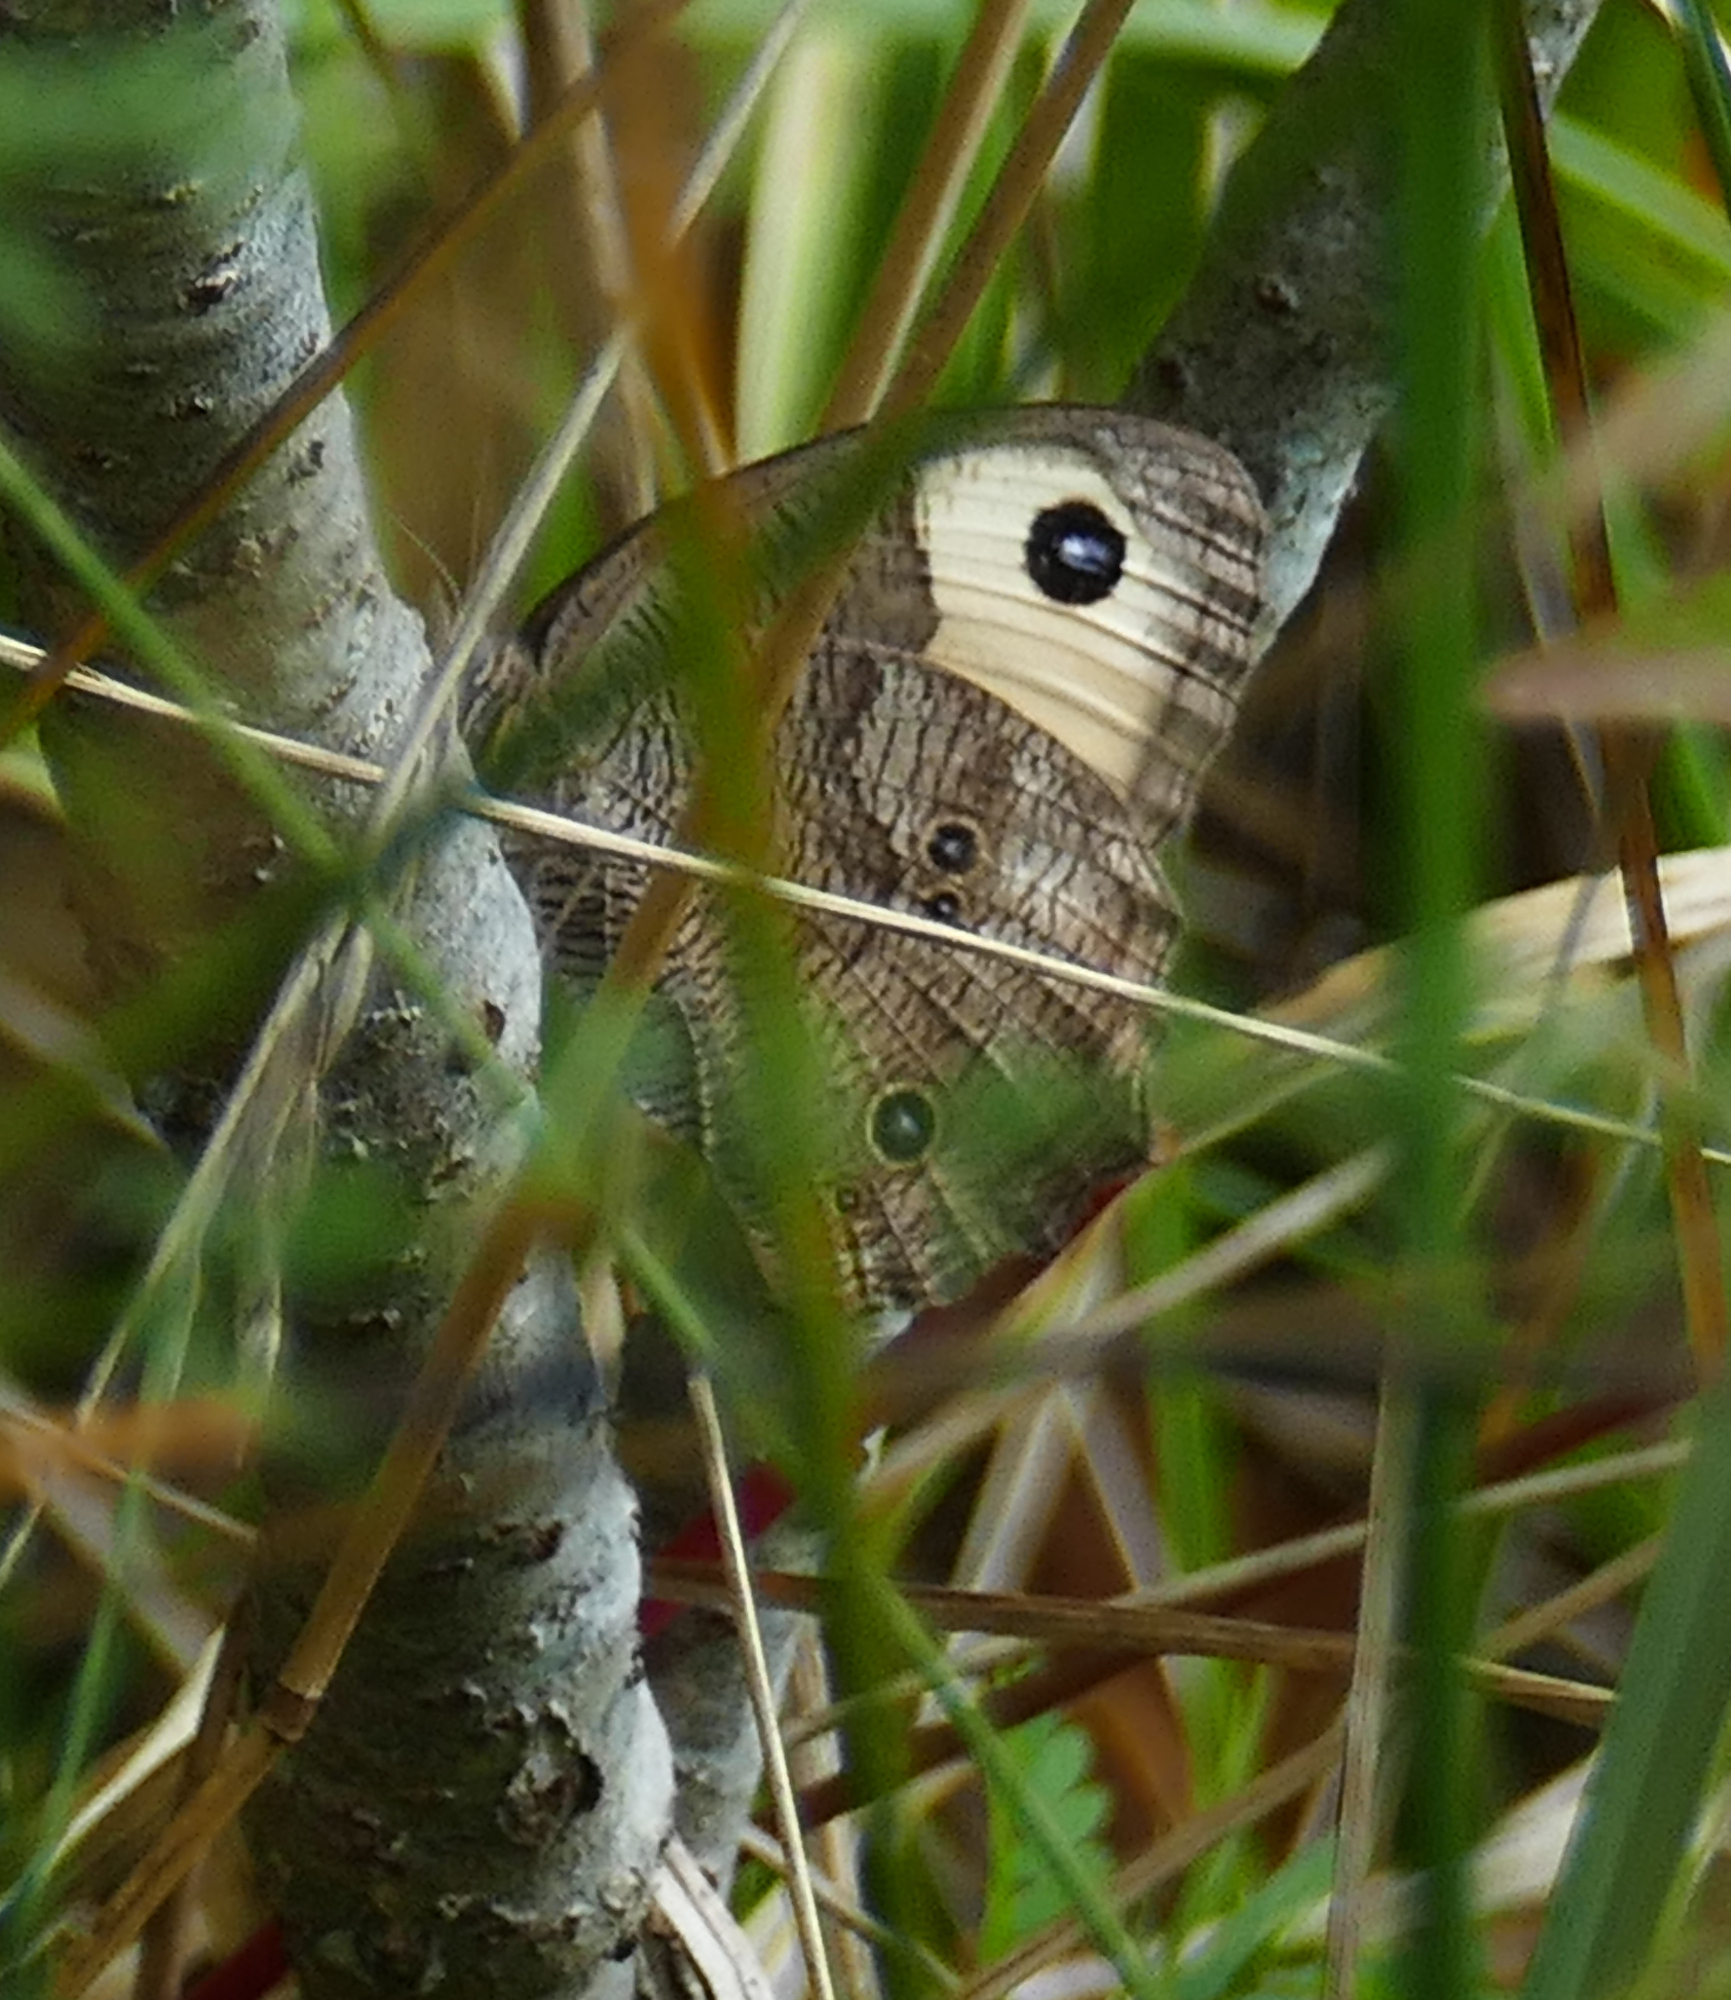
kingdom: Animalia
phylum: Arthropoda
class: Insecta
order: Lepidoptera
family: Nymphalidae
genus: Cercyonis
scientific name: Cercyonis pegala
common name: Common wood-nymph
